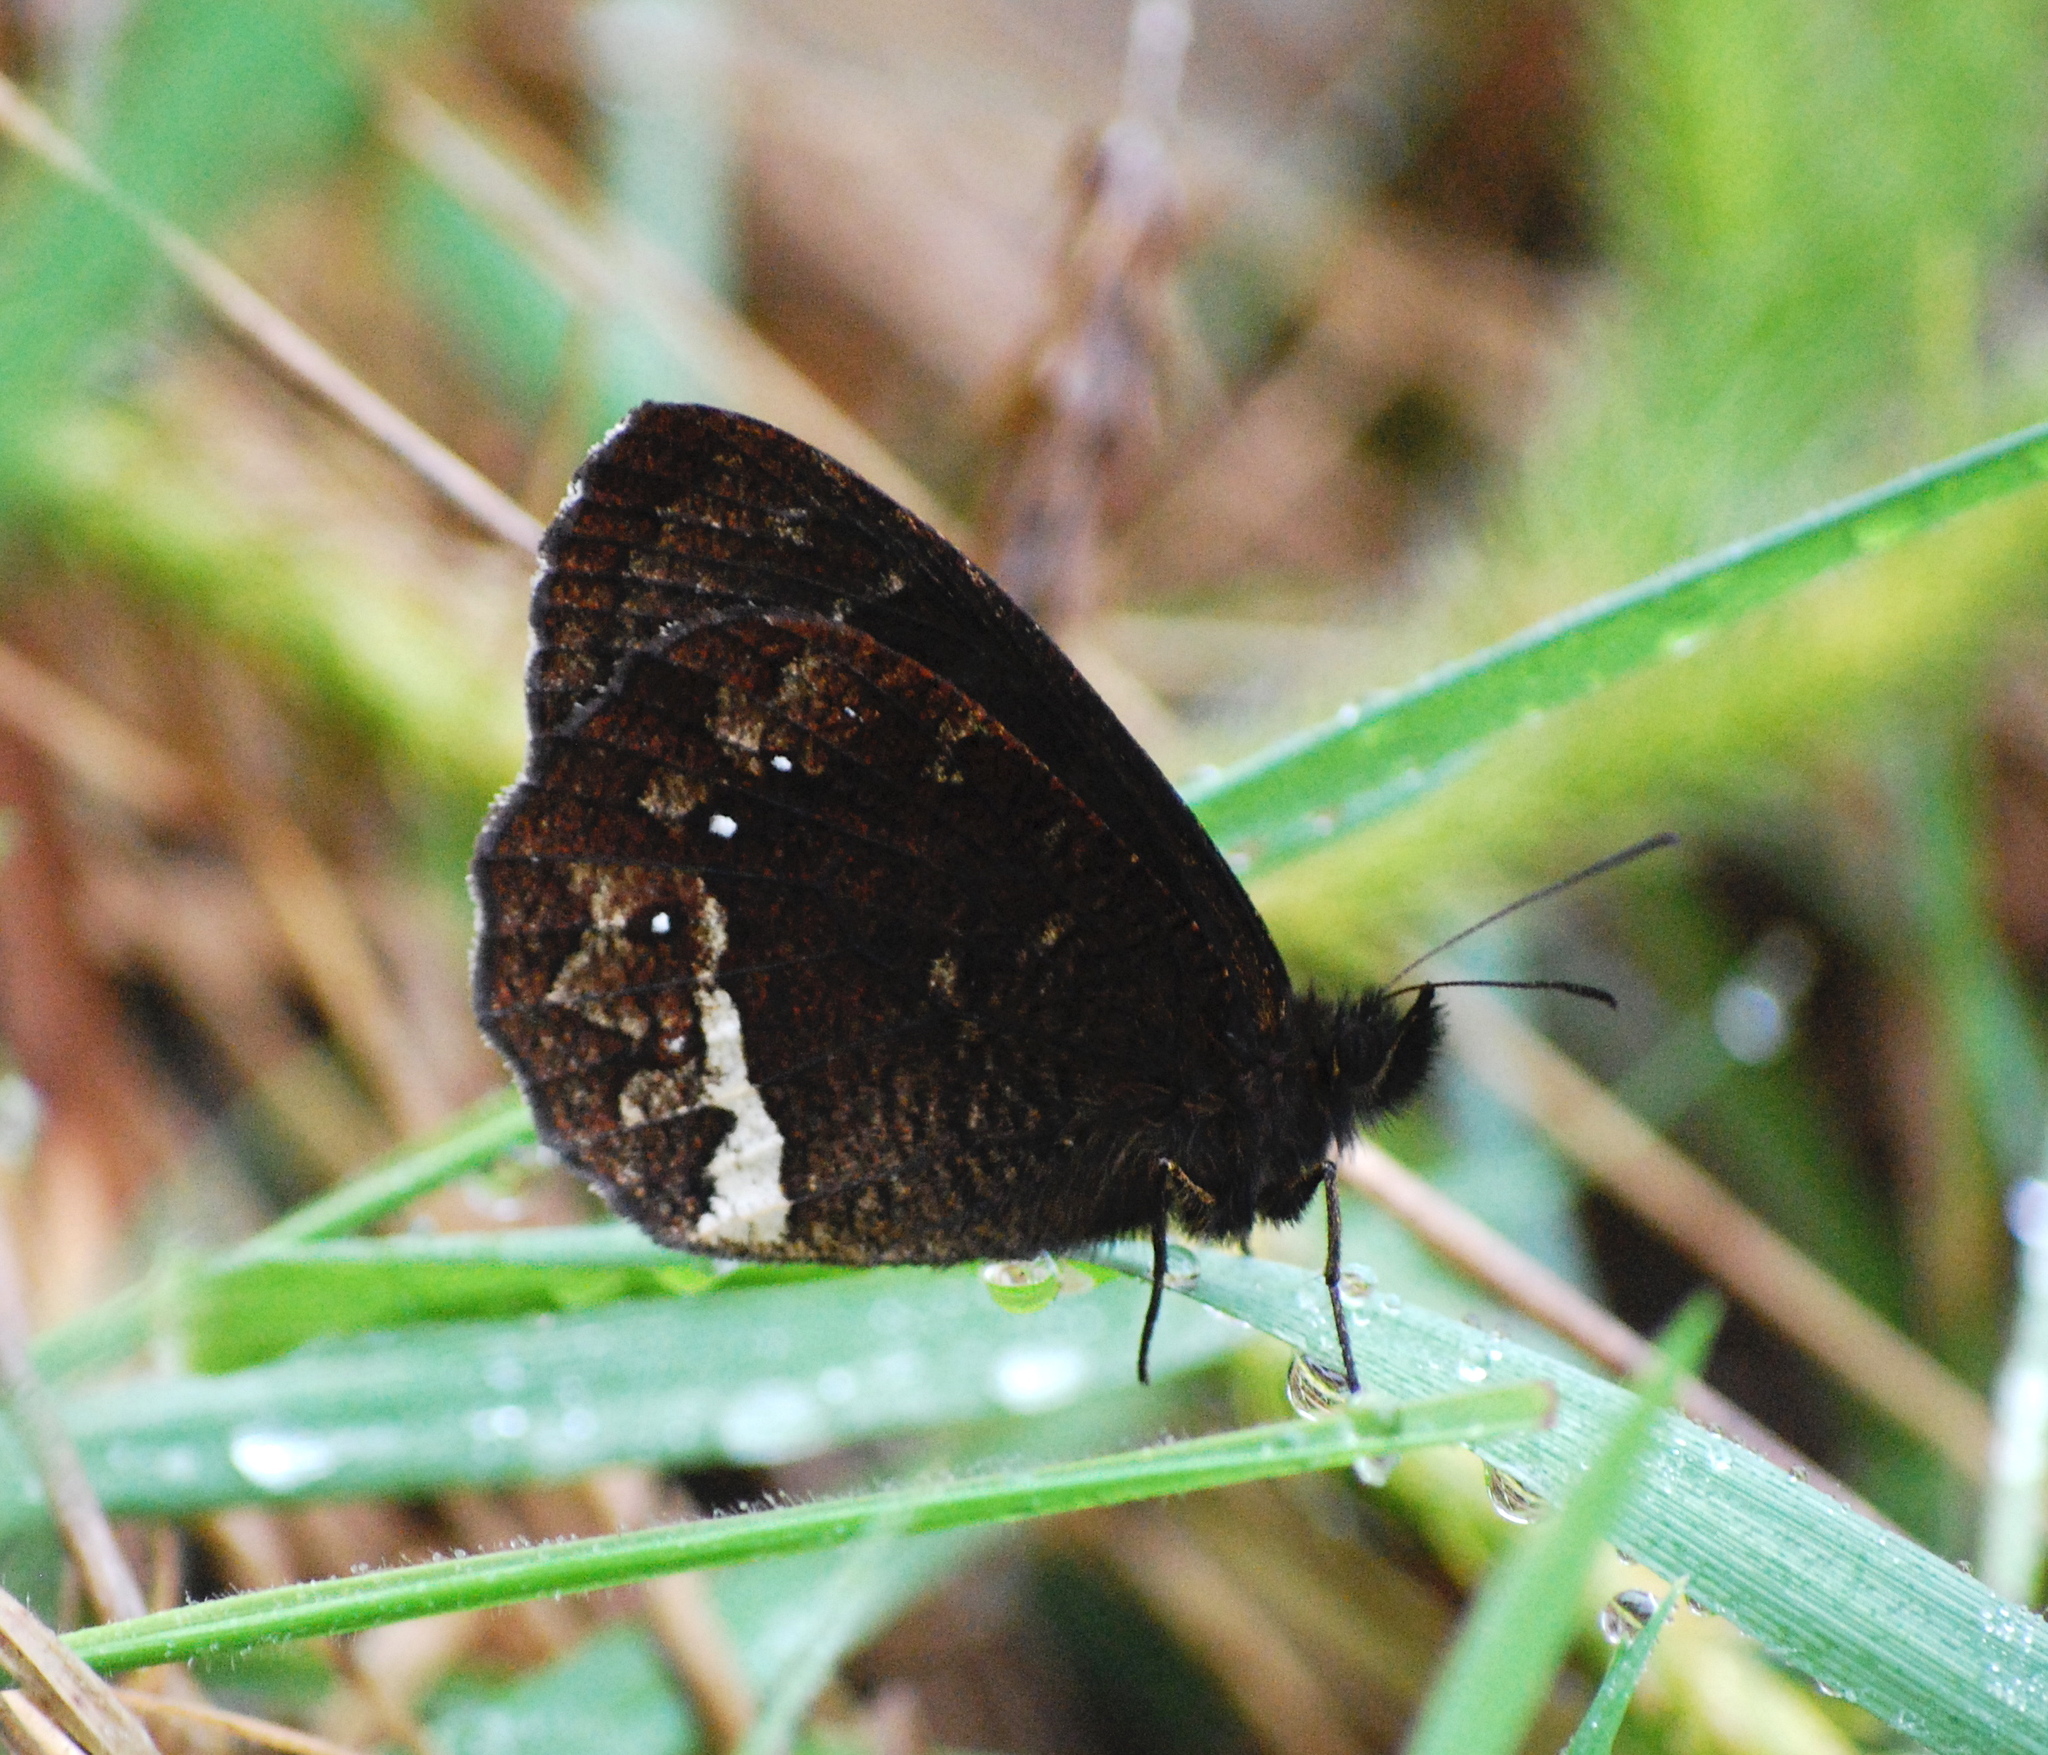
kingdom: Animalia
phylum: Arthropoda
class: Insecta
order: Lepidoptera
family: Nymphalidae
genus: Pedaliodes
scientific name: Pedaliodes phazania
